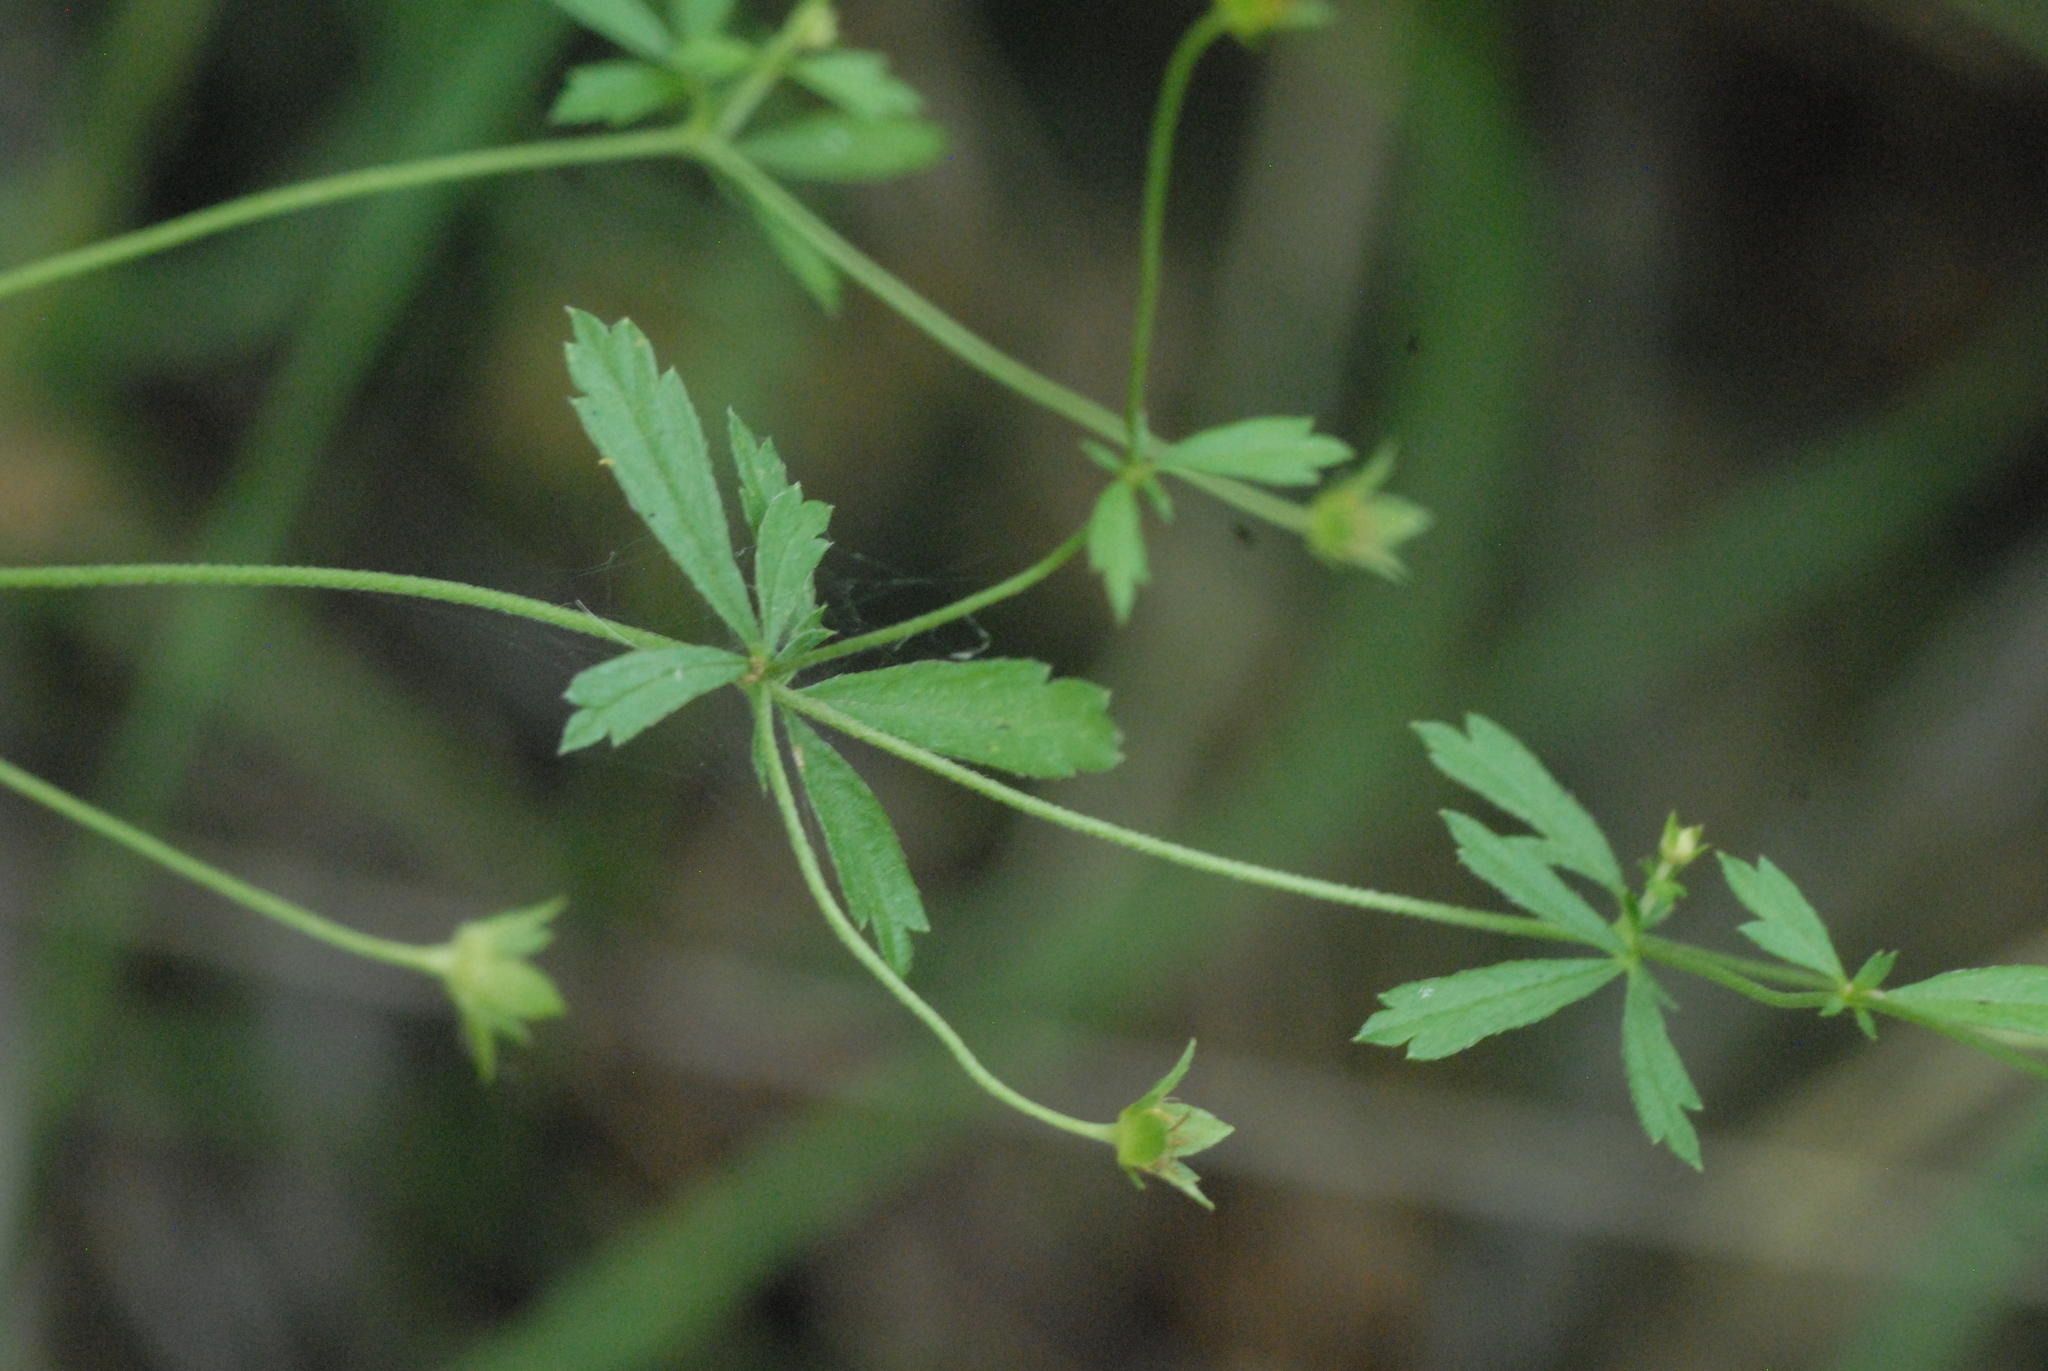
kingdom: Plantae
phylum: Tracheophyta
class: Magnoliopsida
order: Rosales
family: Rosaceae
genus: Potentilla
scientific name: Potentilla erecta
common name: Tormentil
